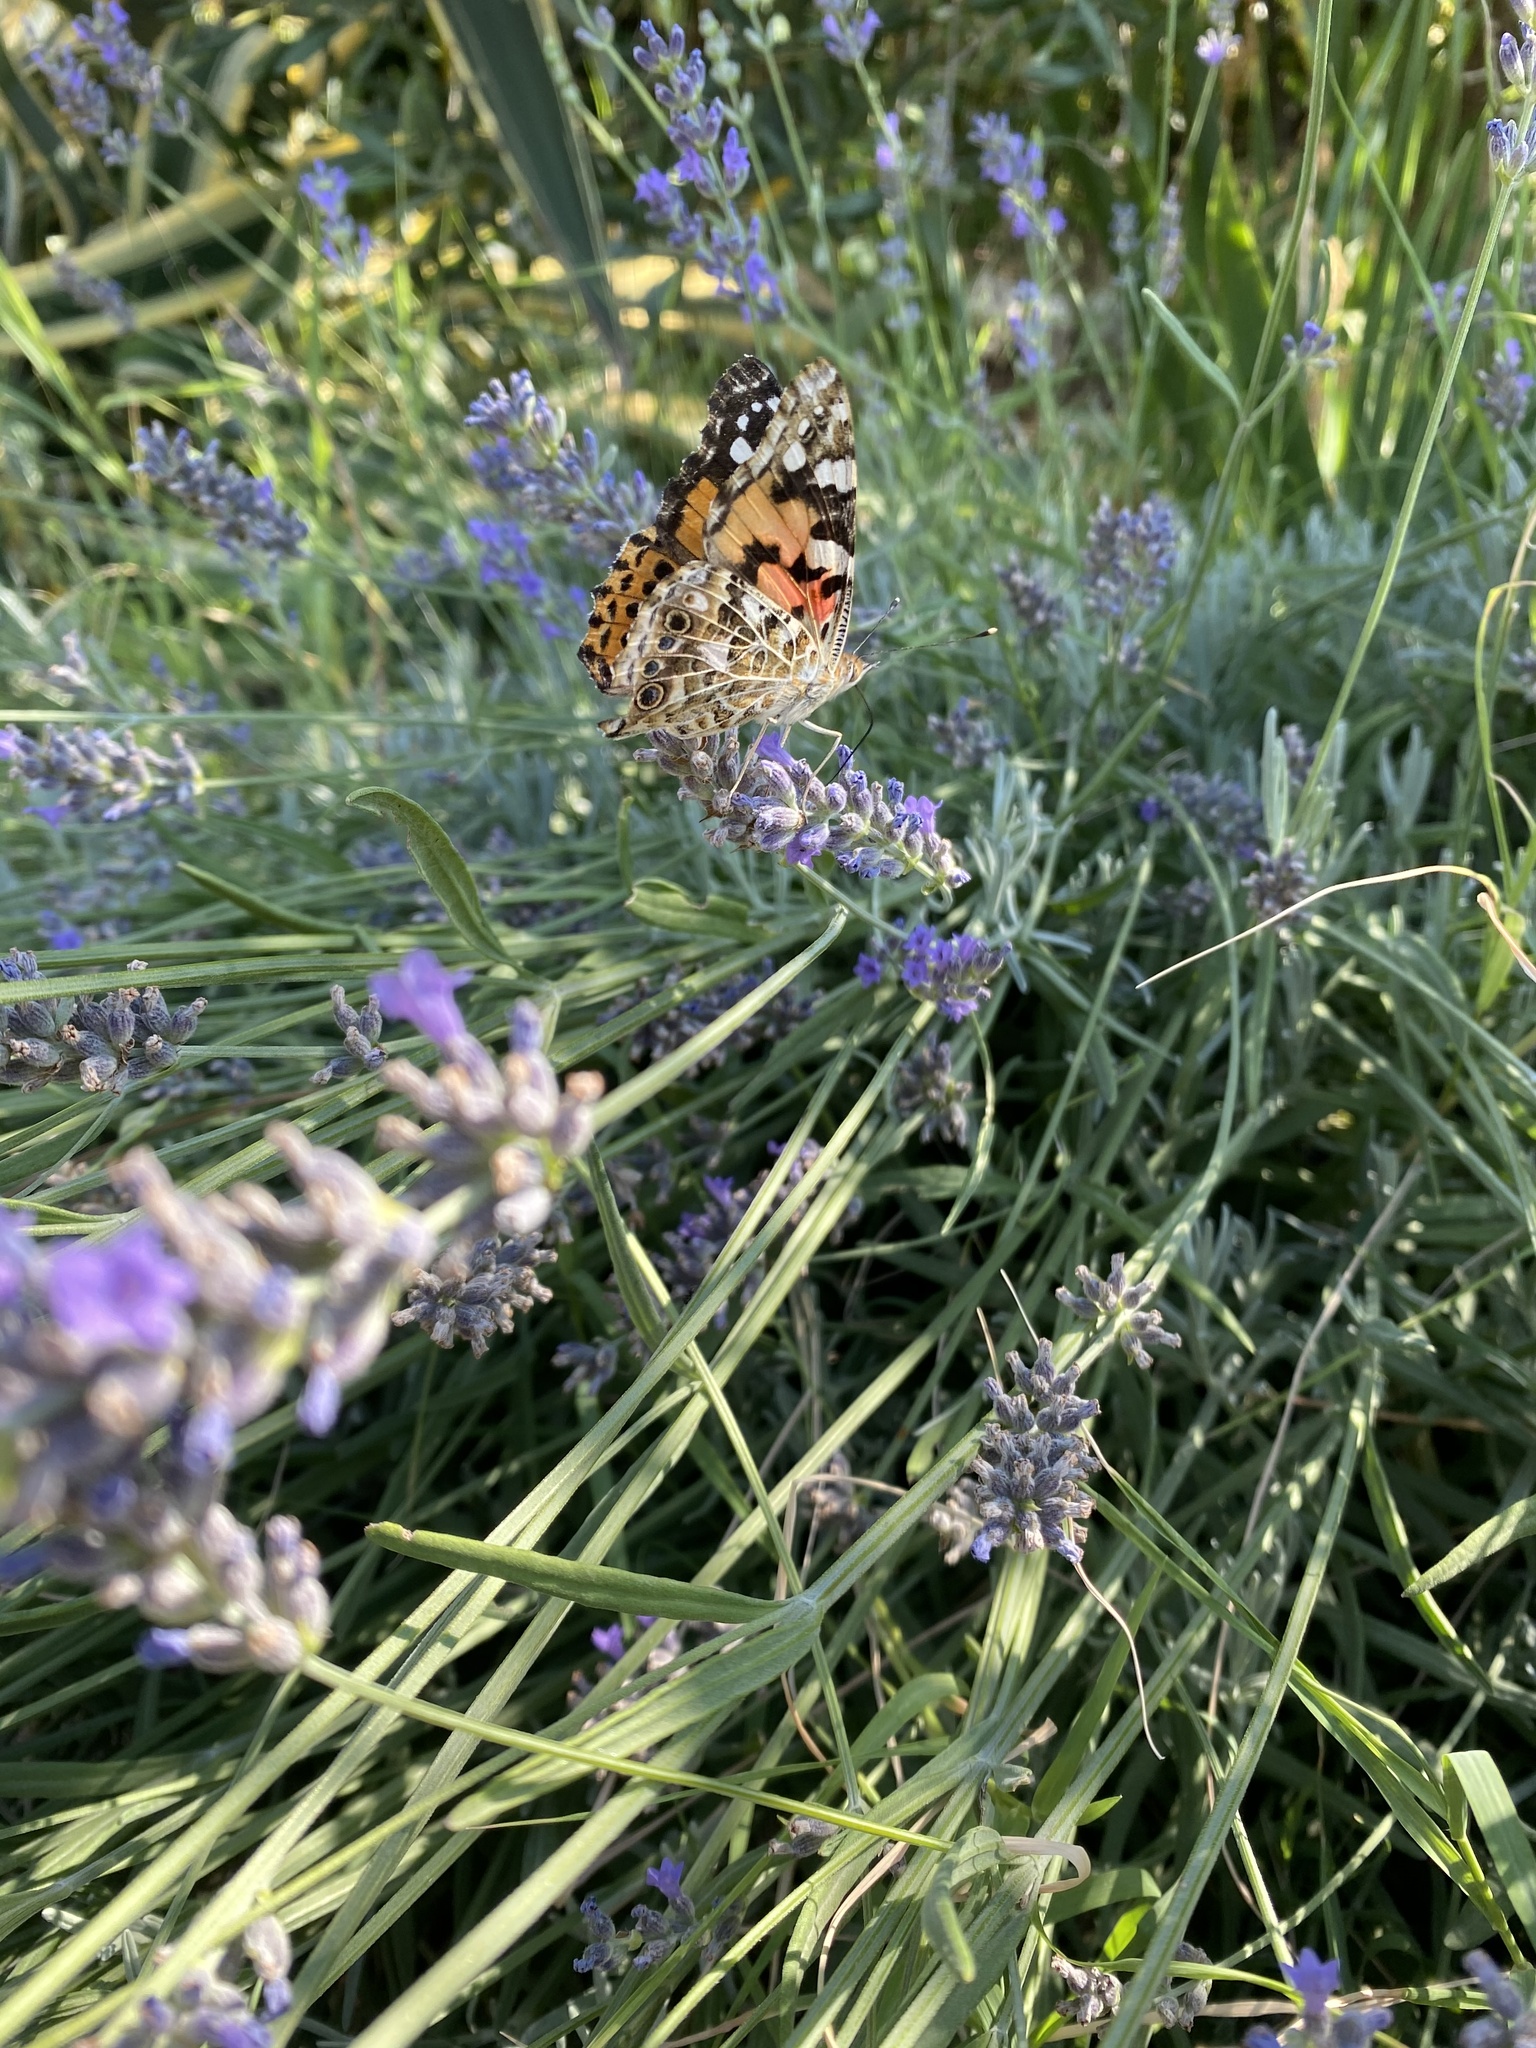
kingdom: Animalia
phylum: Arthropoda
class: Insecta
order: Lepidoptera
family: Nymphalidae
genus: Vanessa
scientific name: Vanessa cardui
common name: Painted lady
